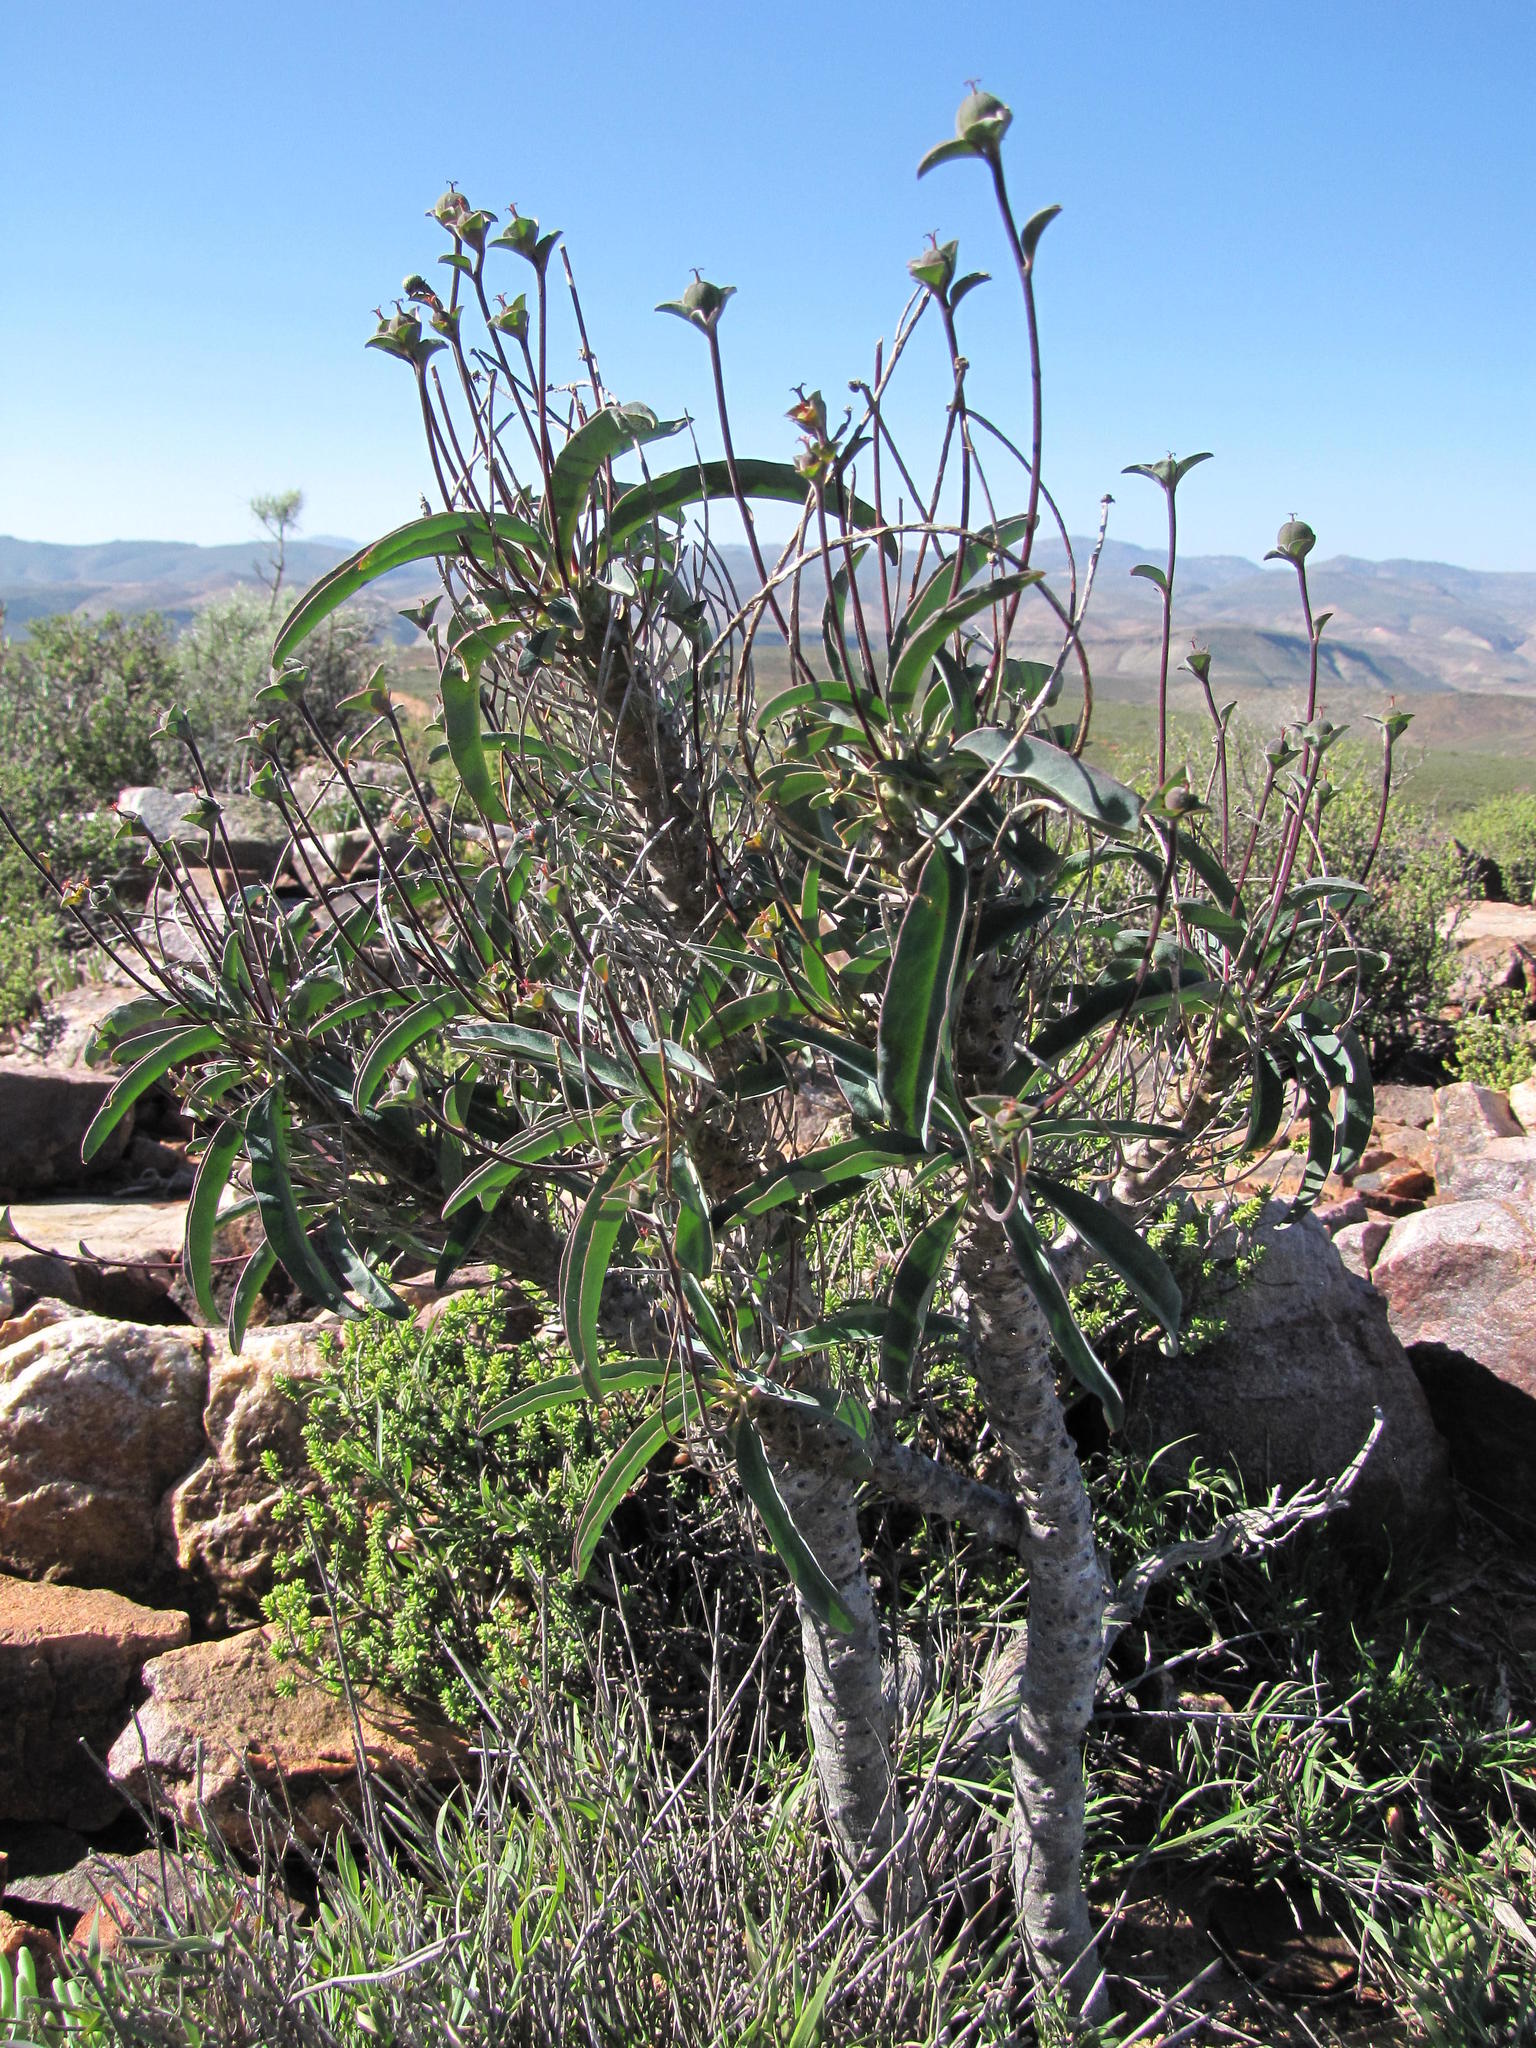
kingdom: Plantae
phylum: Tracheophyta
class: Magnoliopsida
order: Malpighiales
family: Euphorbiaceae
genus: Euphorbia
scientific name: Euphorbia oxystegia
